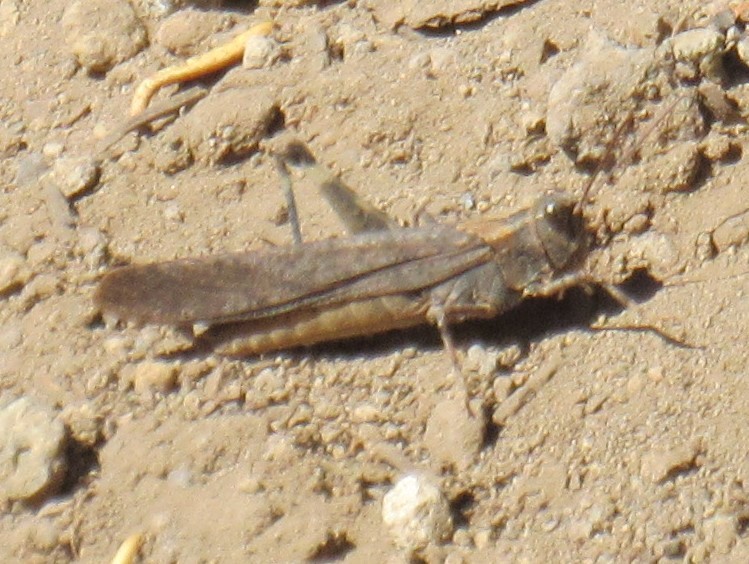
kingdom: Animalia
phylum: Arthropoda
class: Insecta
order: Orthoptera
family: Acrididae
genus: Trimerotropis
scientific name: Trimerotropis verruculata
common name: Crackling forest grasshopper
